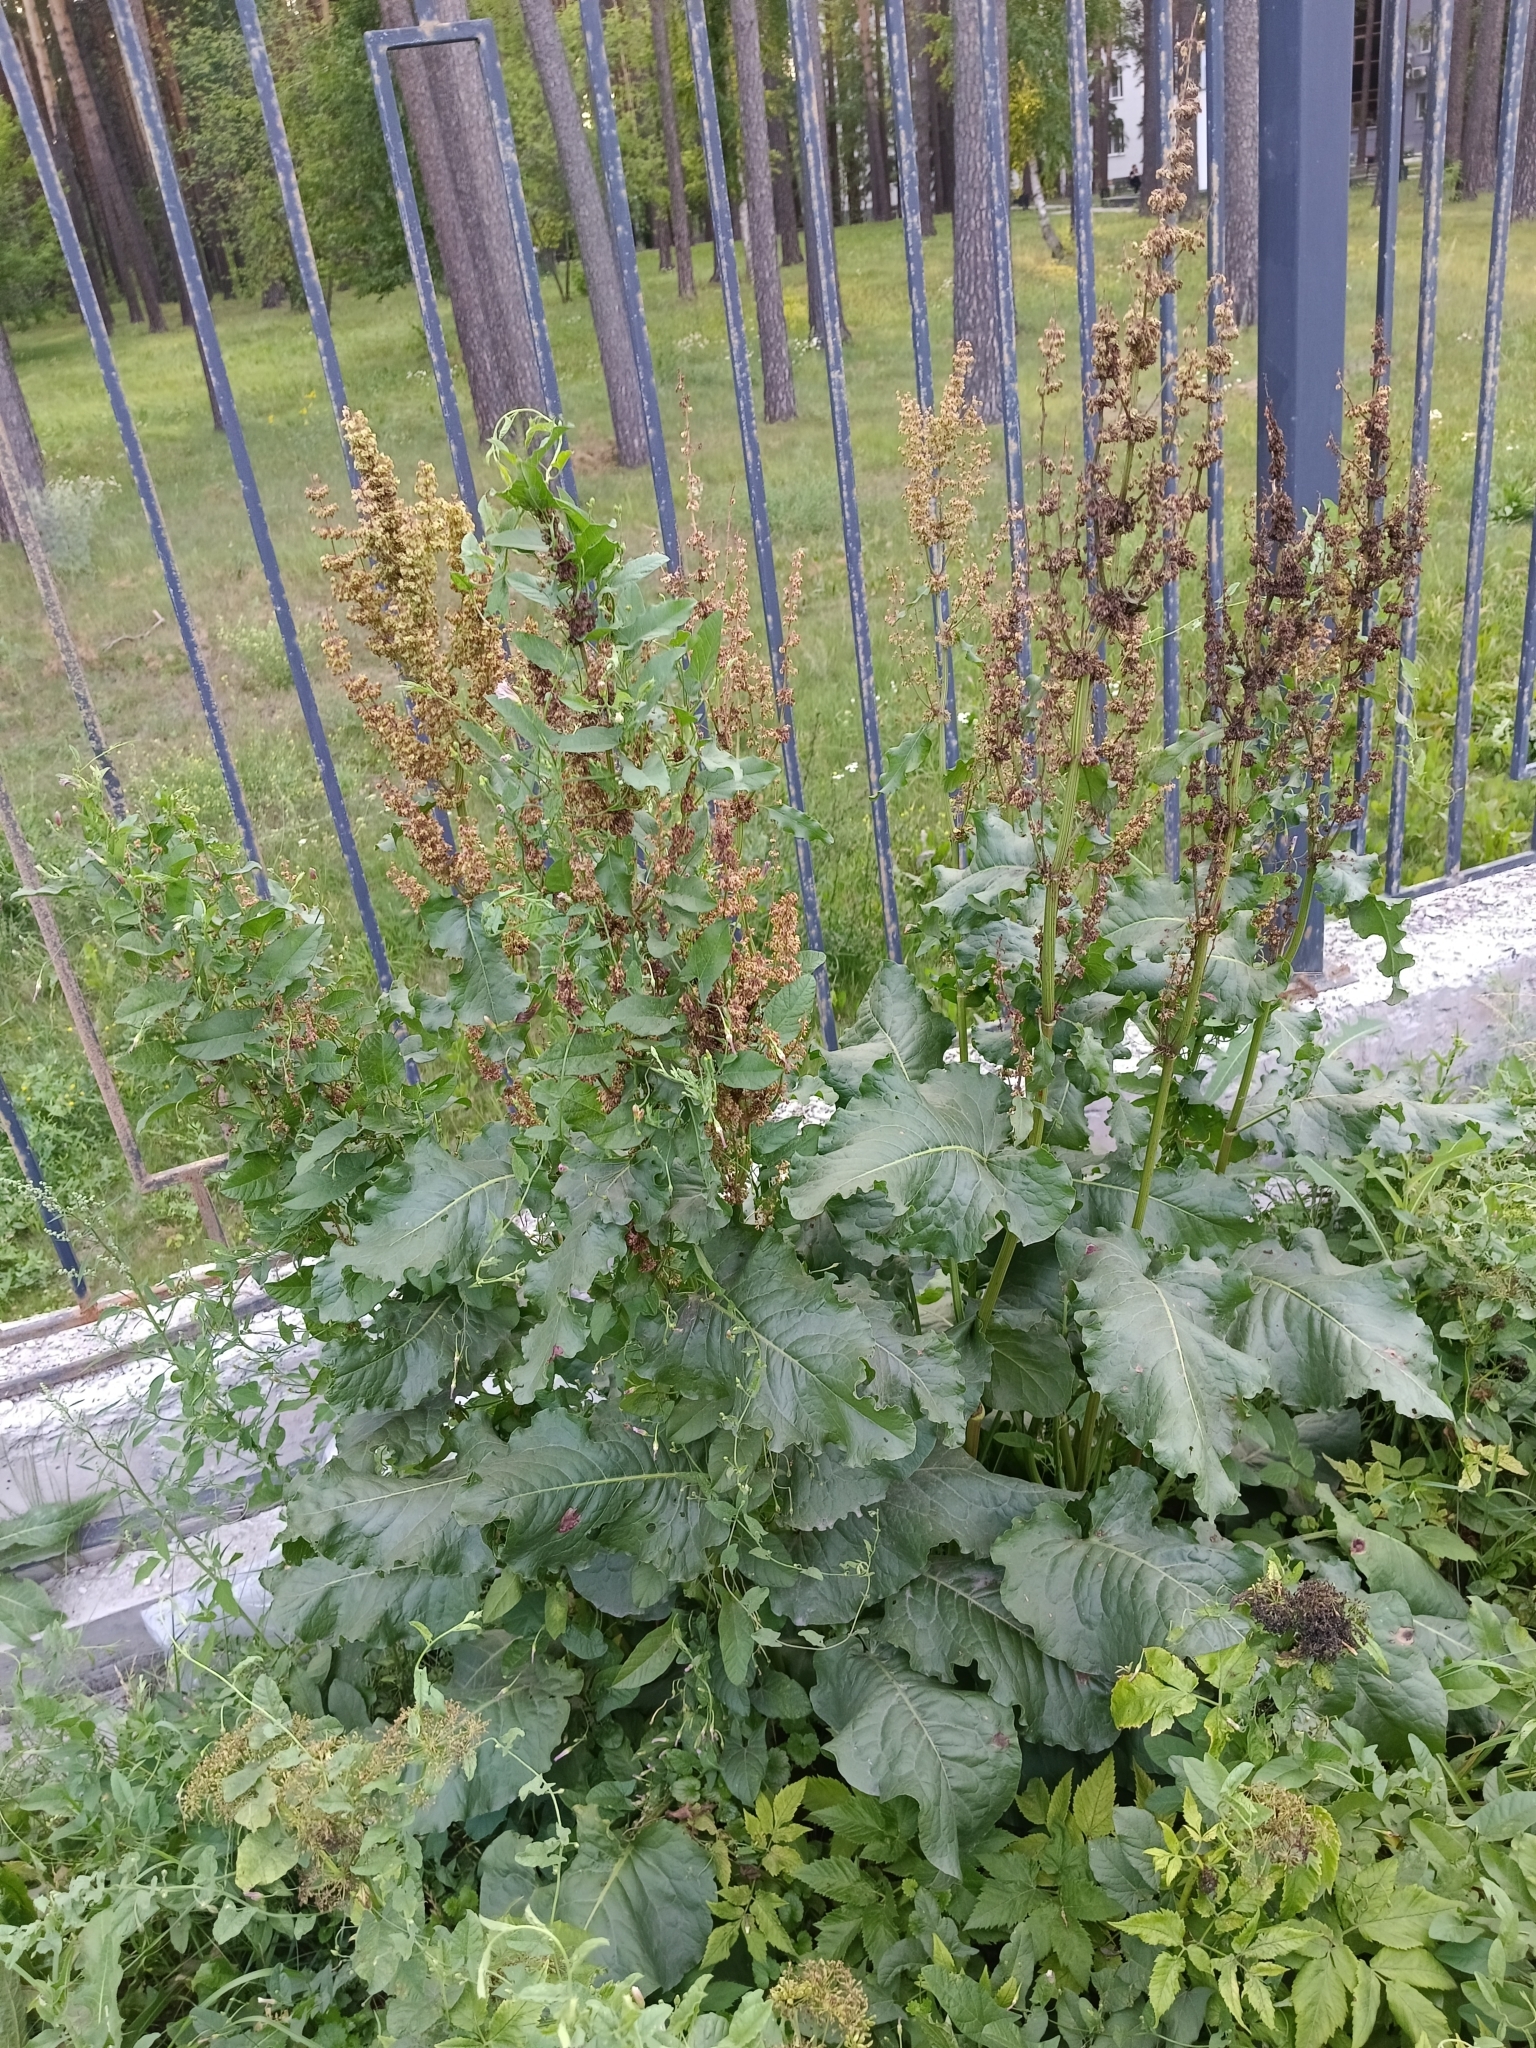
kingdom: Plantae
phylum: Tracheophyta
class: Magnoliopsida
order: Caryophyllales
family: Polygonaceae
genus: Rumex
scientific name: Rumex confertus
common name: Russian dock
